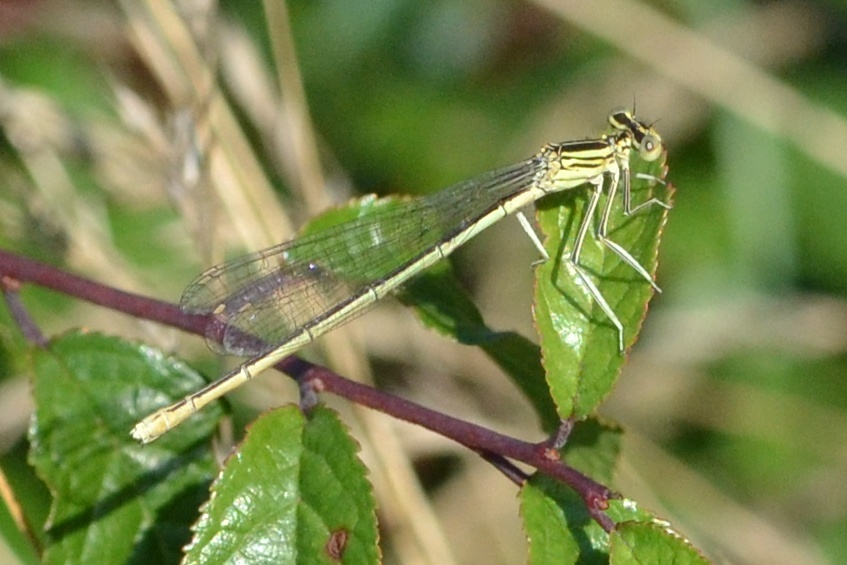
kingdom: Animalia
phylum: Arthropoda
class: Insecta
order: Odonata
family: Platycnemididae
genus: Platycnemis
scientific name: Platycnemis pennipes
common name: White-legged damselfly
